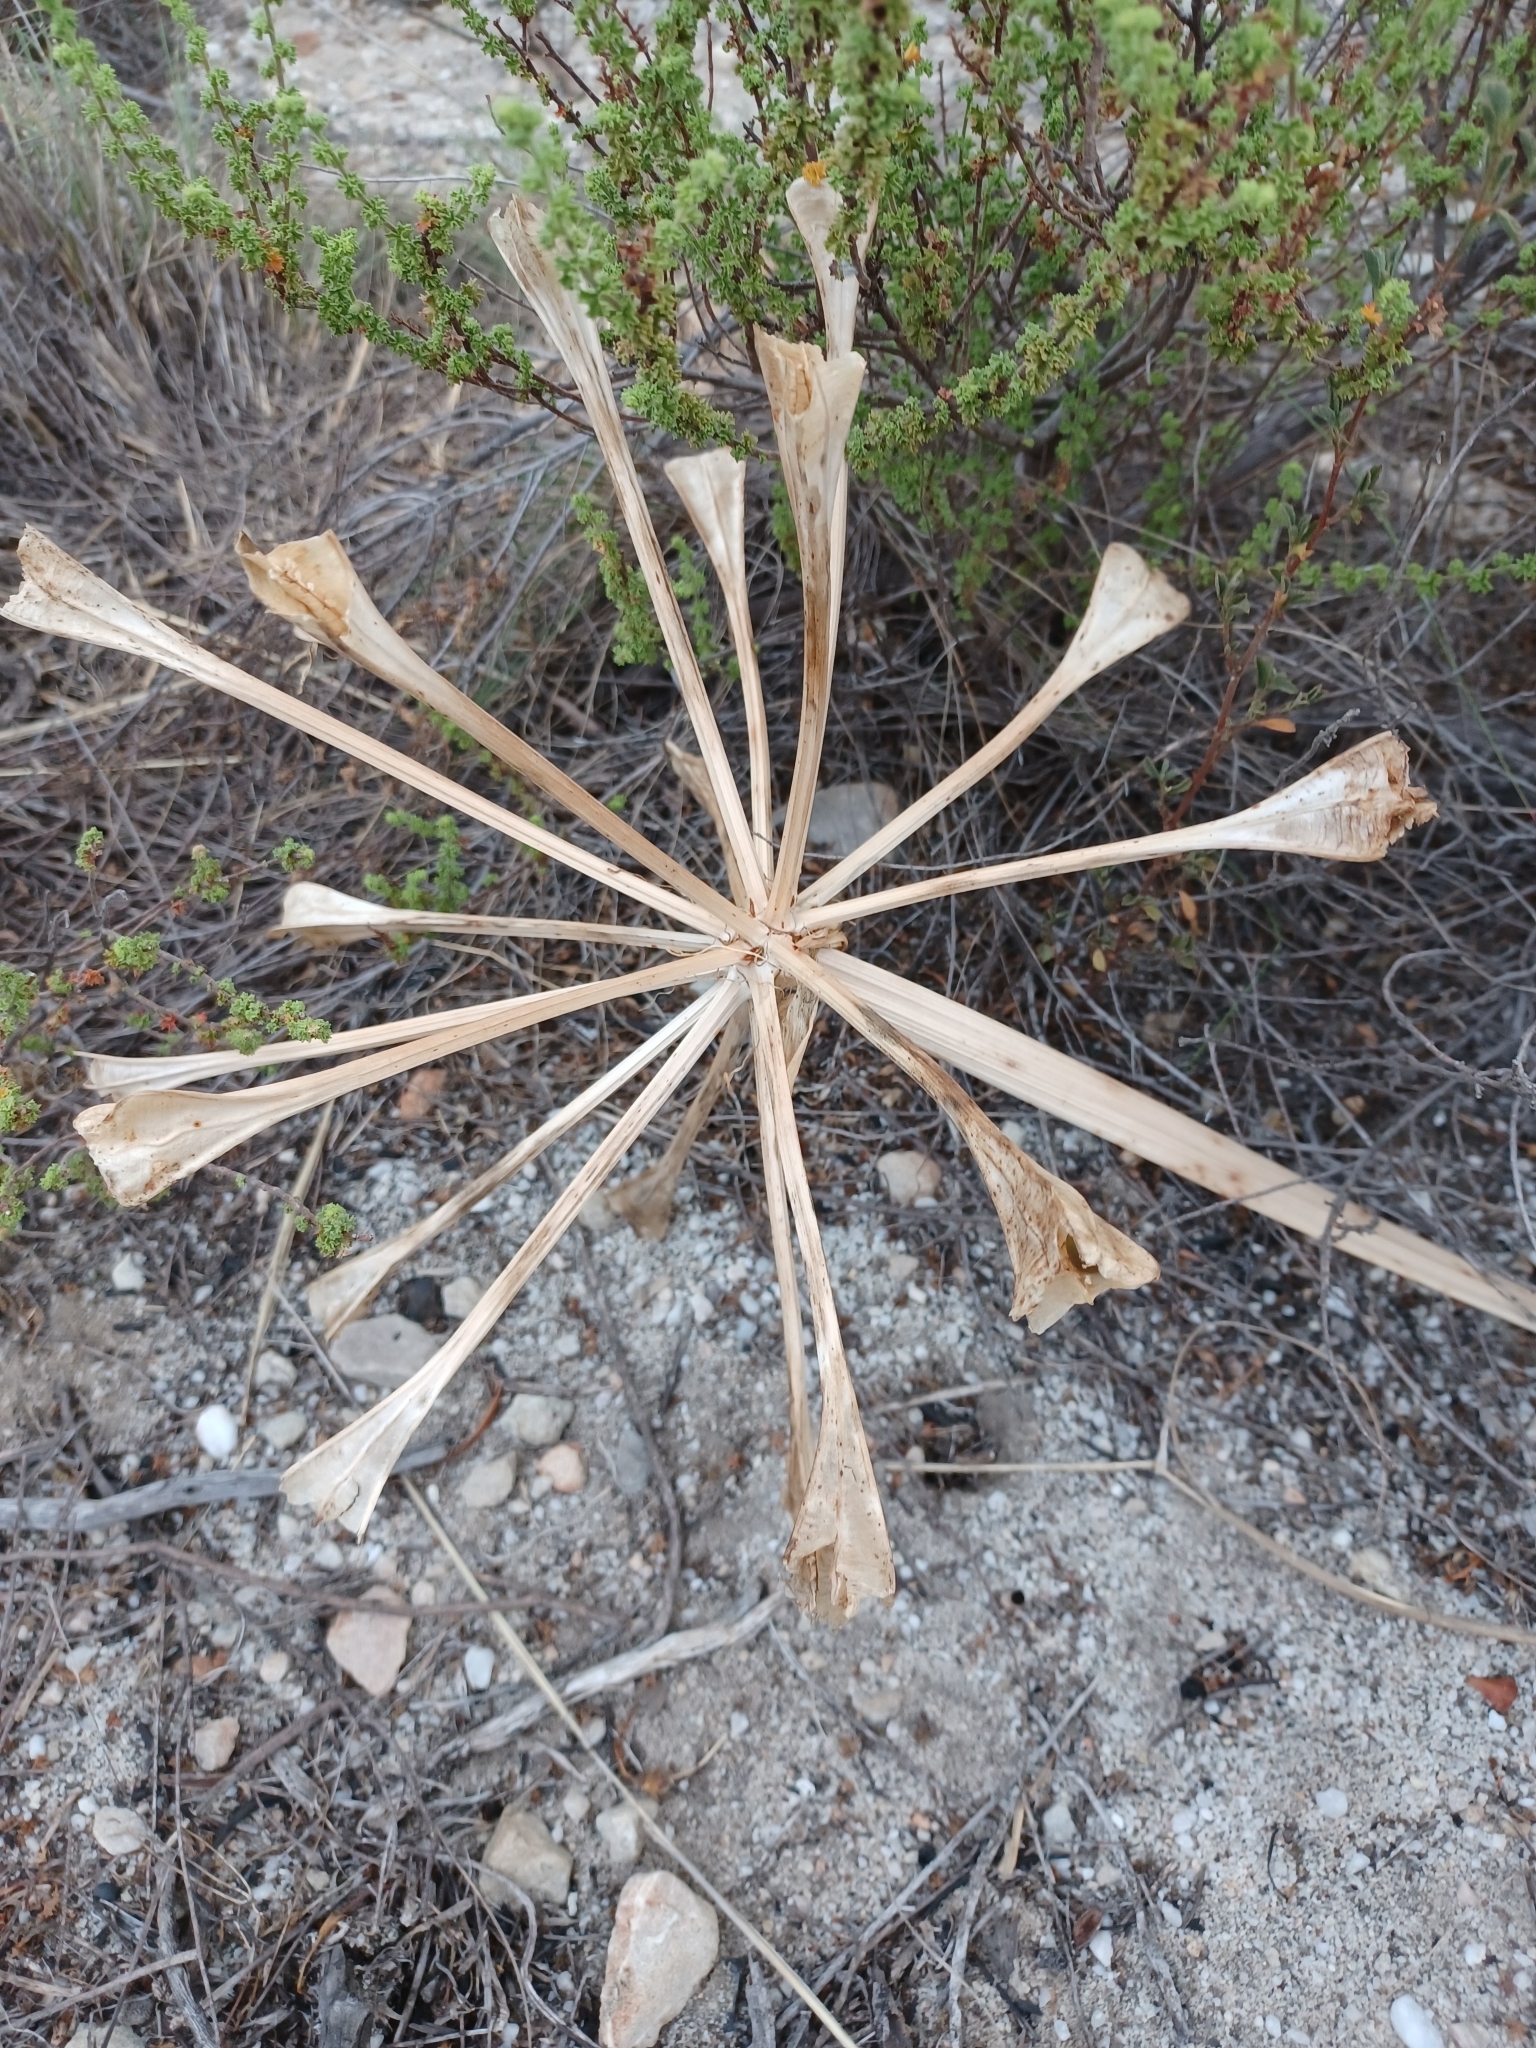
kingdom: Plantae
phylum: Tracheophyta
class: Liliopsida
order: Asparagales
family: Amaryllidaceae
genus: Brunsvigia
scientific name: Brunsvigia orientalis
